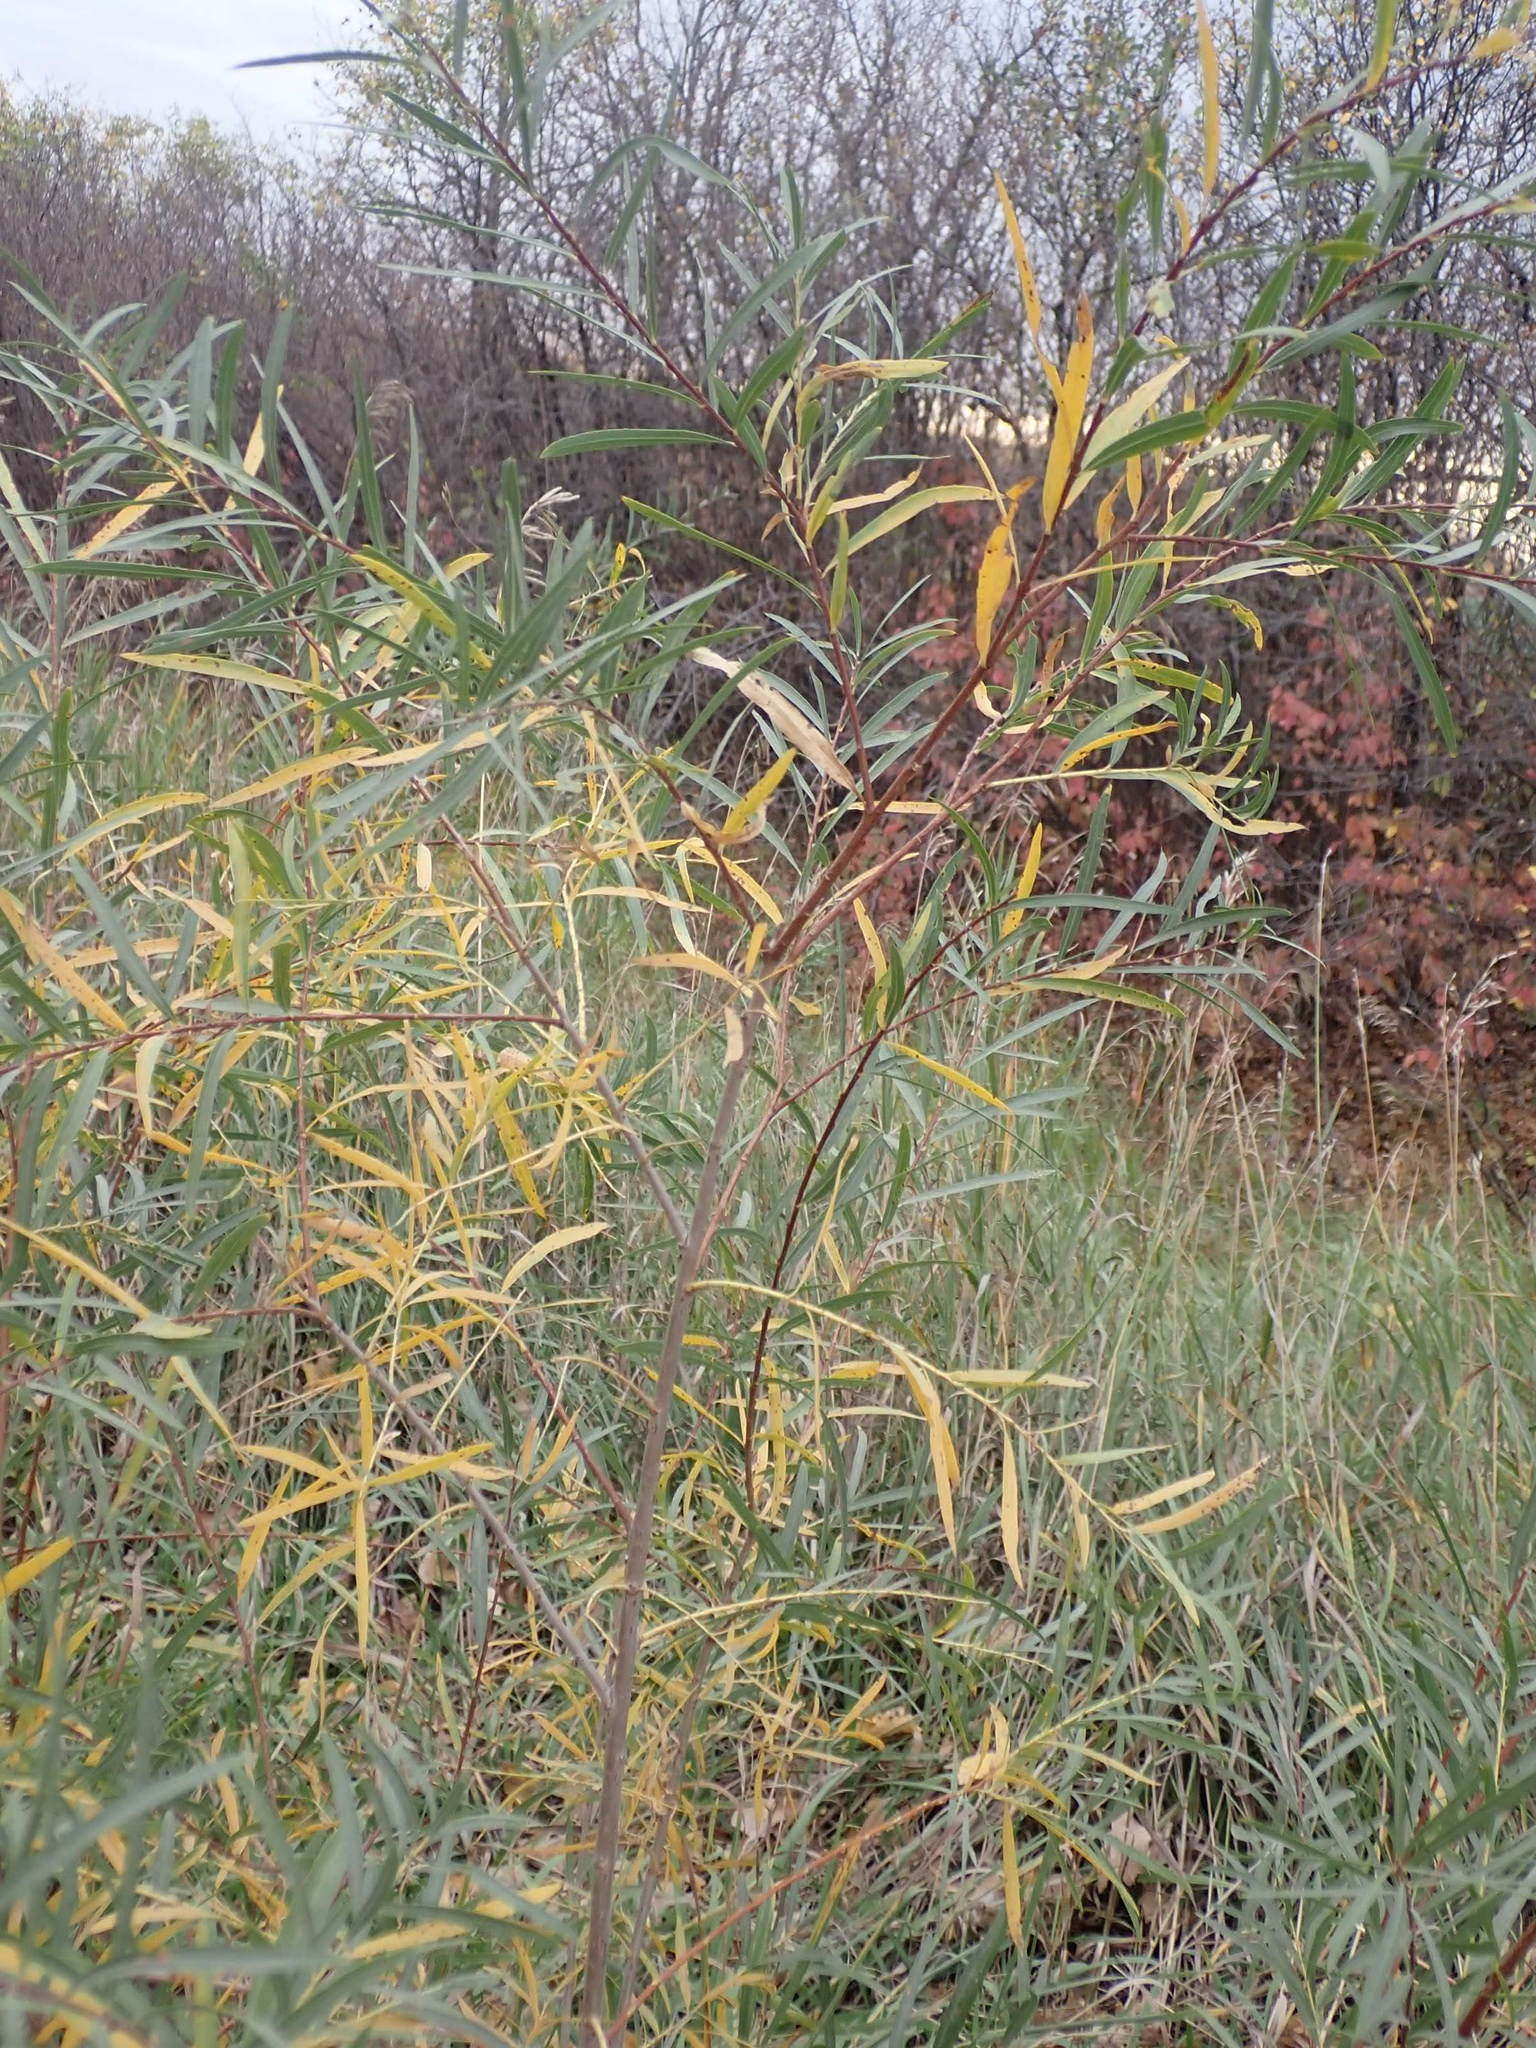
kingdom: Plantae
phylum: Tracheophyta
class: Magnoliopsida
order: Malpighiales
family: Salicaceae
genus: Salix
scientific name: Salix interior
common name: Sandbar willow
